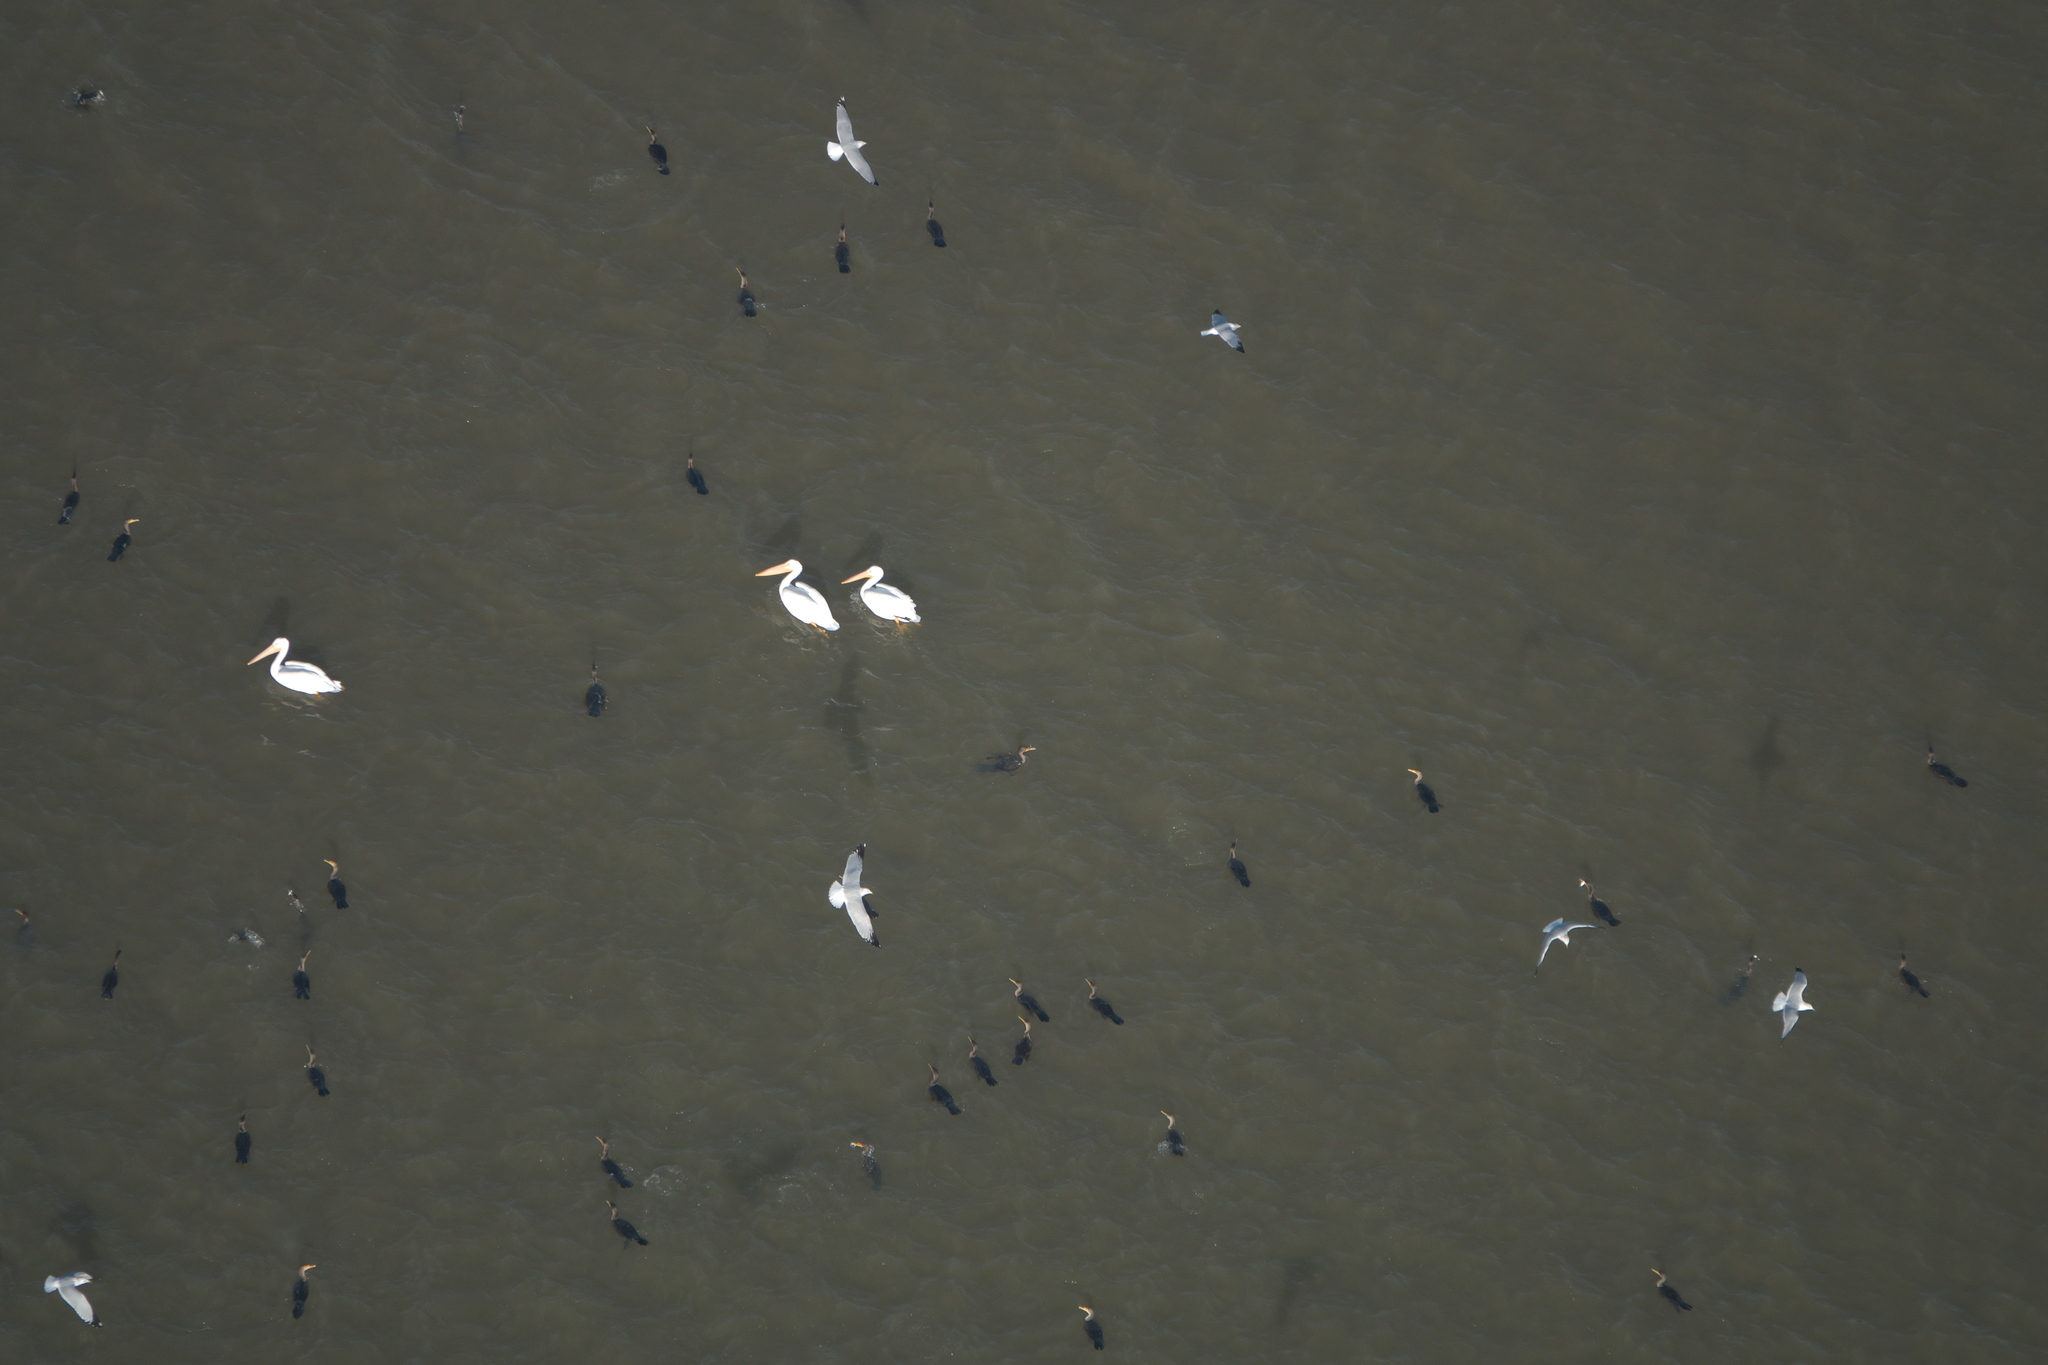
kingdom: Animalia
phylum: Chordata
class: Aves
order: Suliformes
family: Phalacrocoracidae
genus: Phalacrocorax
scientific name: Phalacrocorax auritus
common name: Double-crested cormorant
